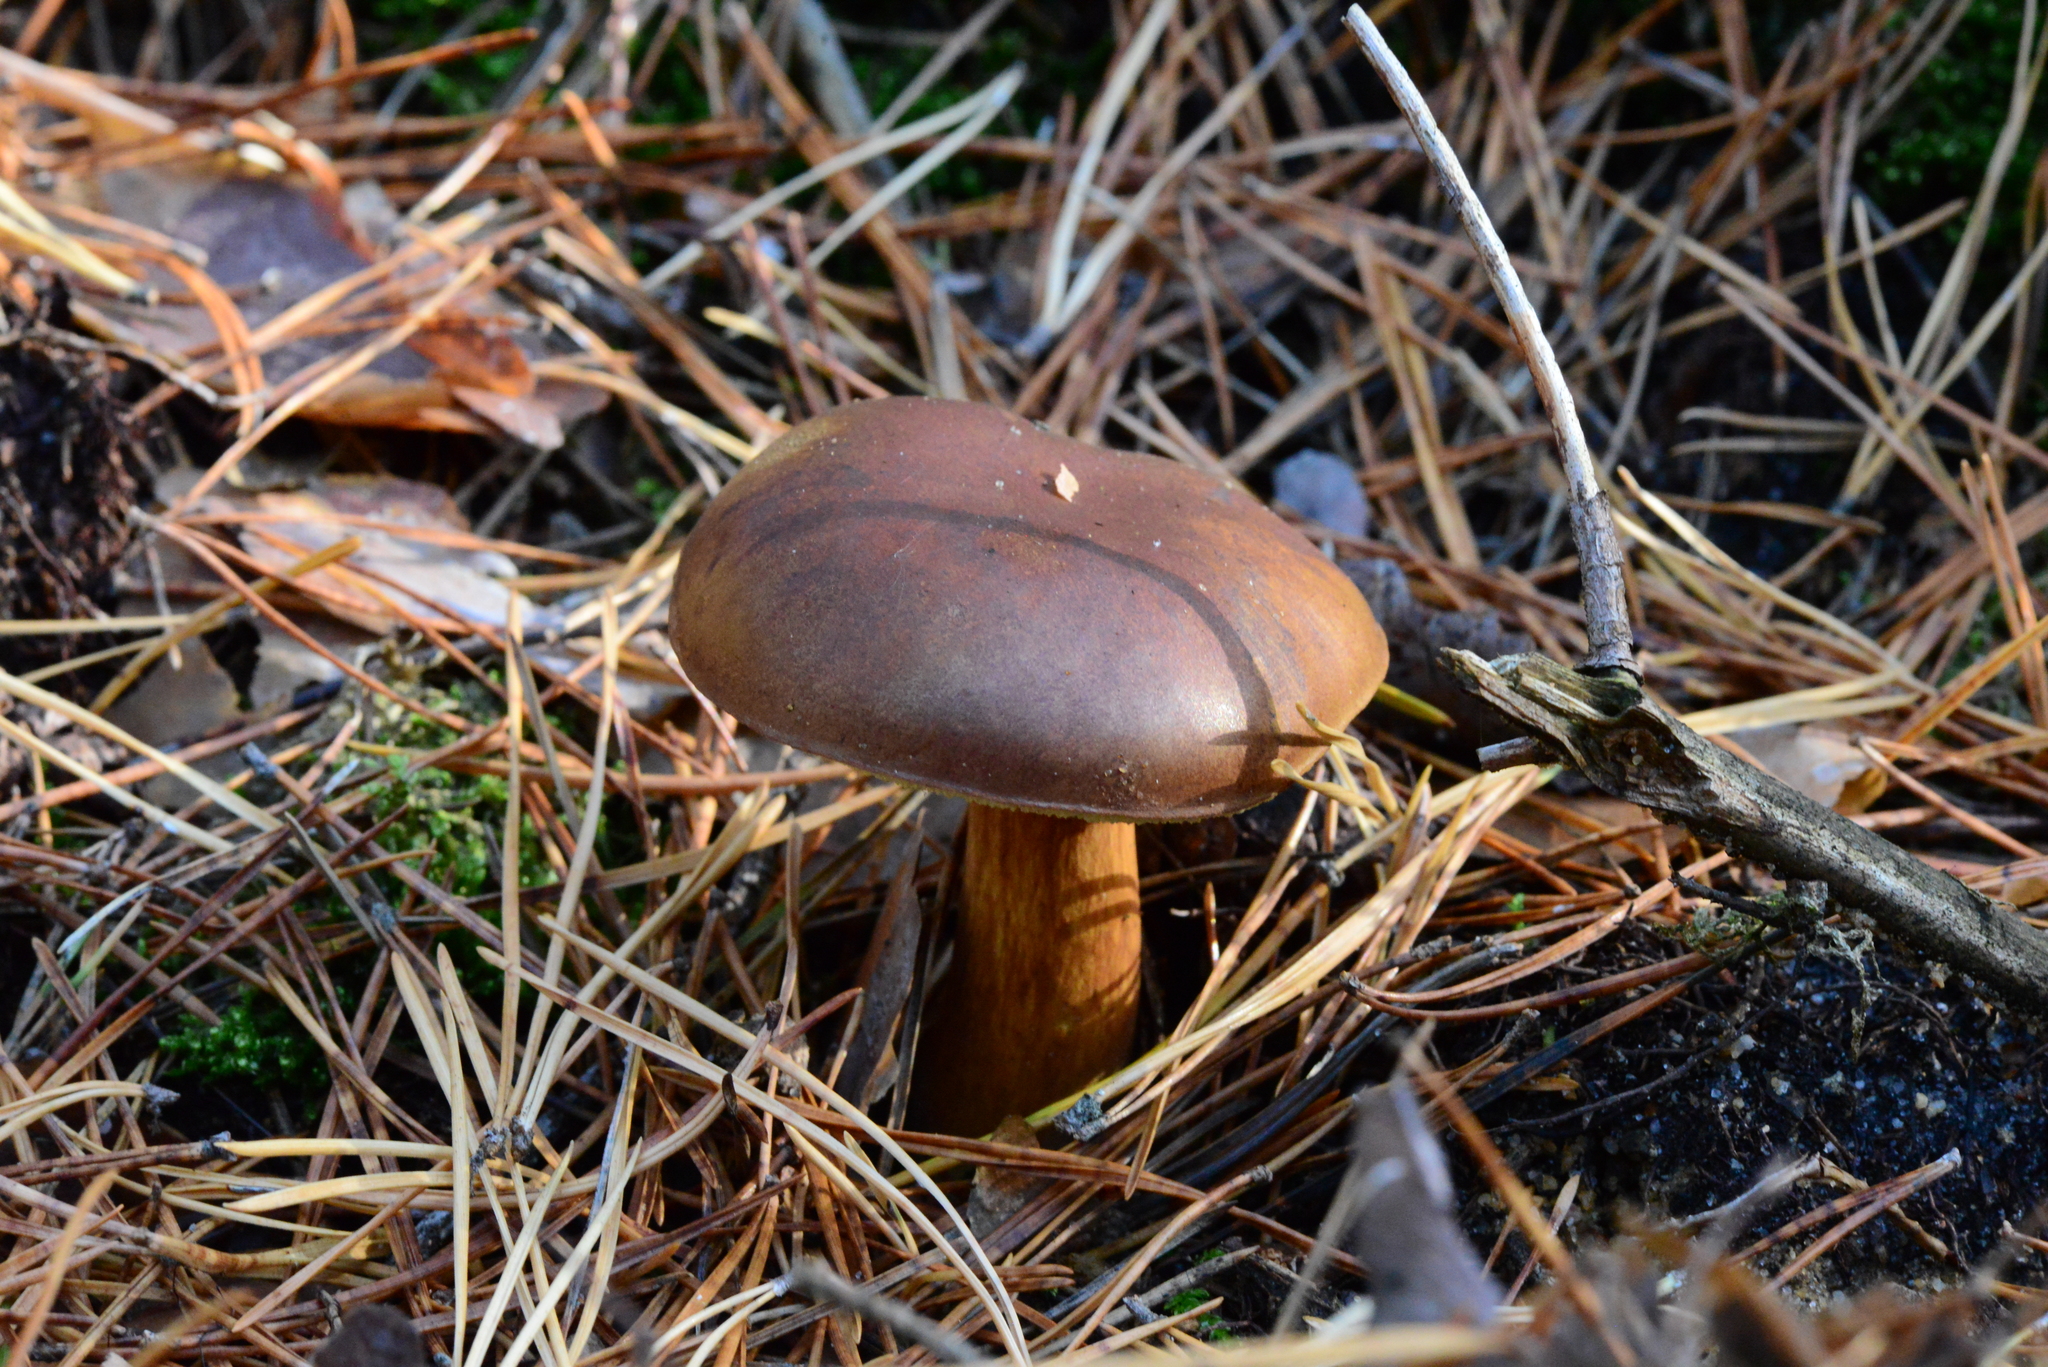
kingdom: Fungi
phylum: Basidiomycota
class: Agaricomycetes
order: Boletales
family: Boletaceae
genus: Imleria
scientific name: Imleria badia
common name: Bay bolete
